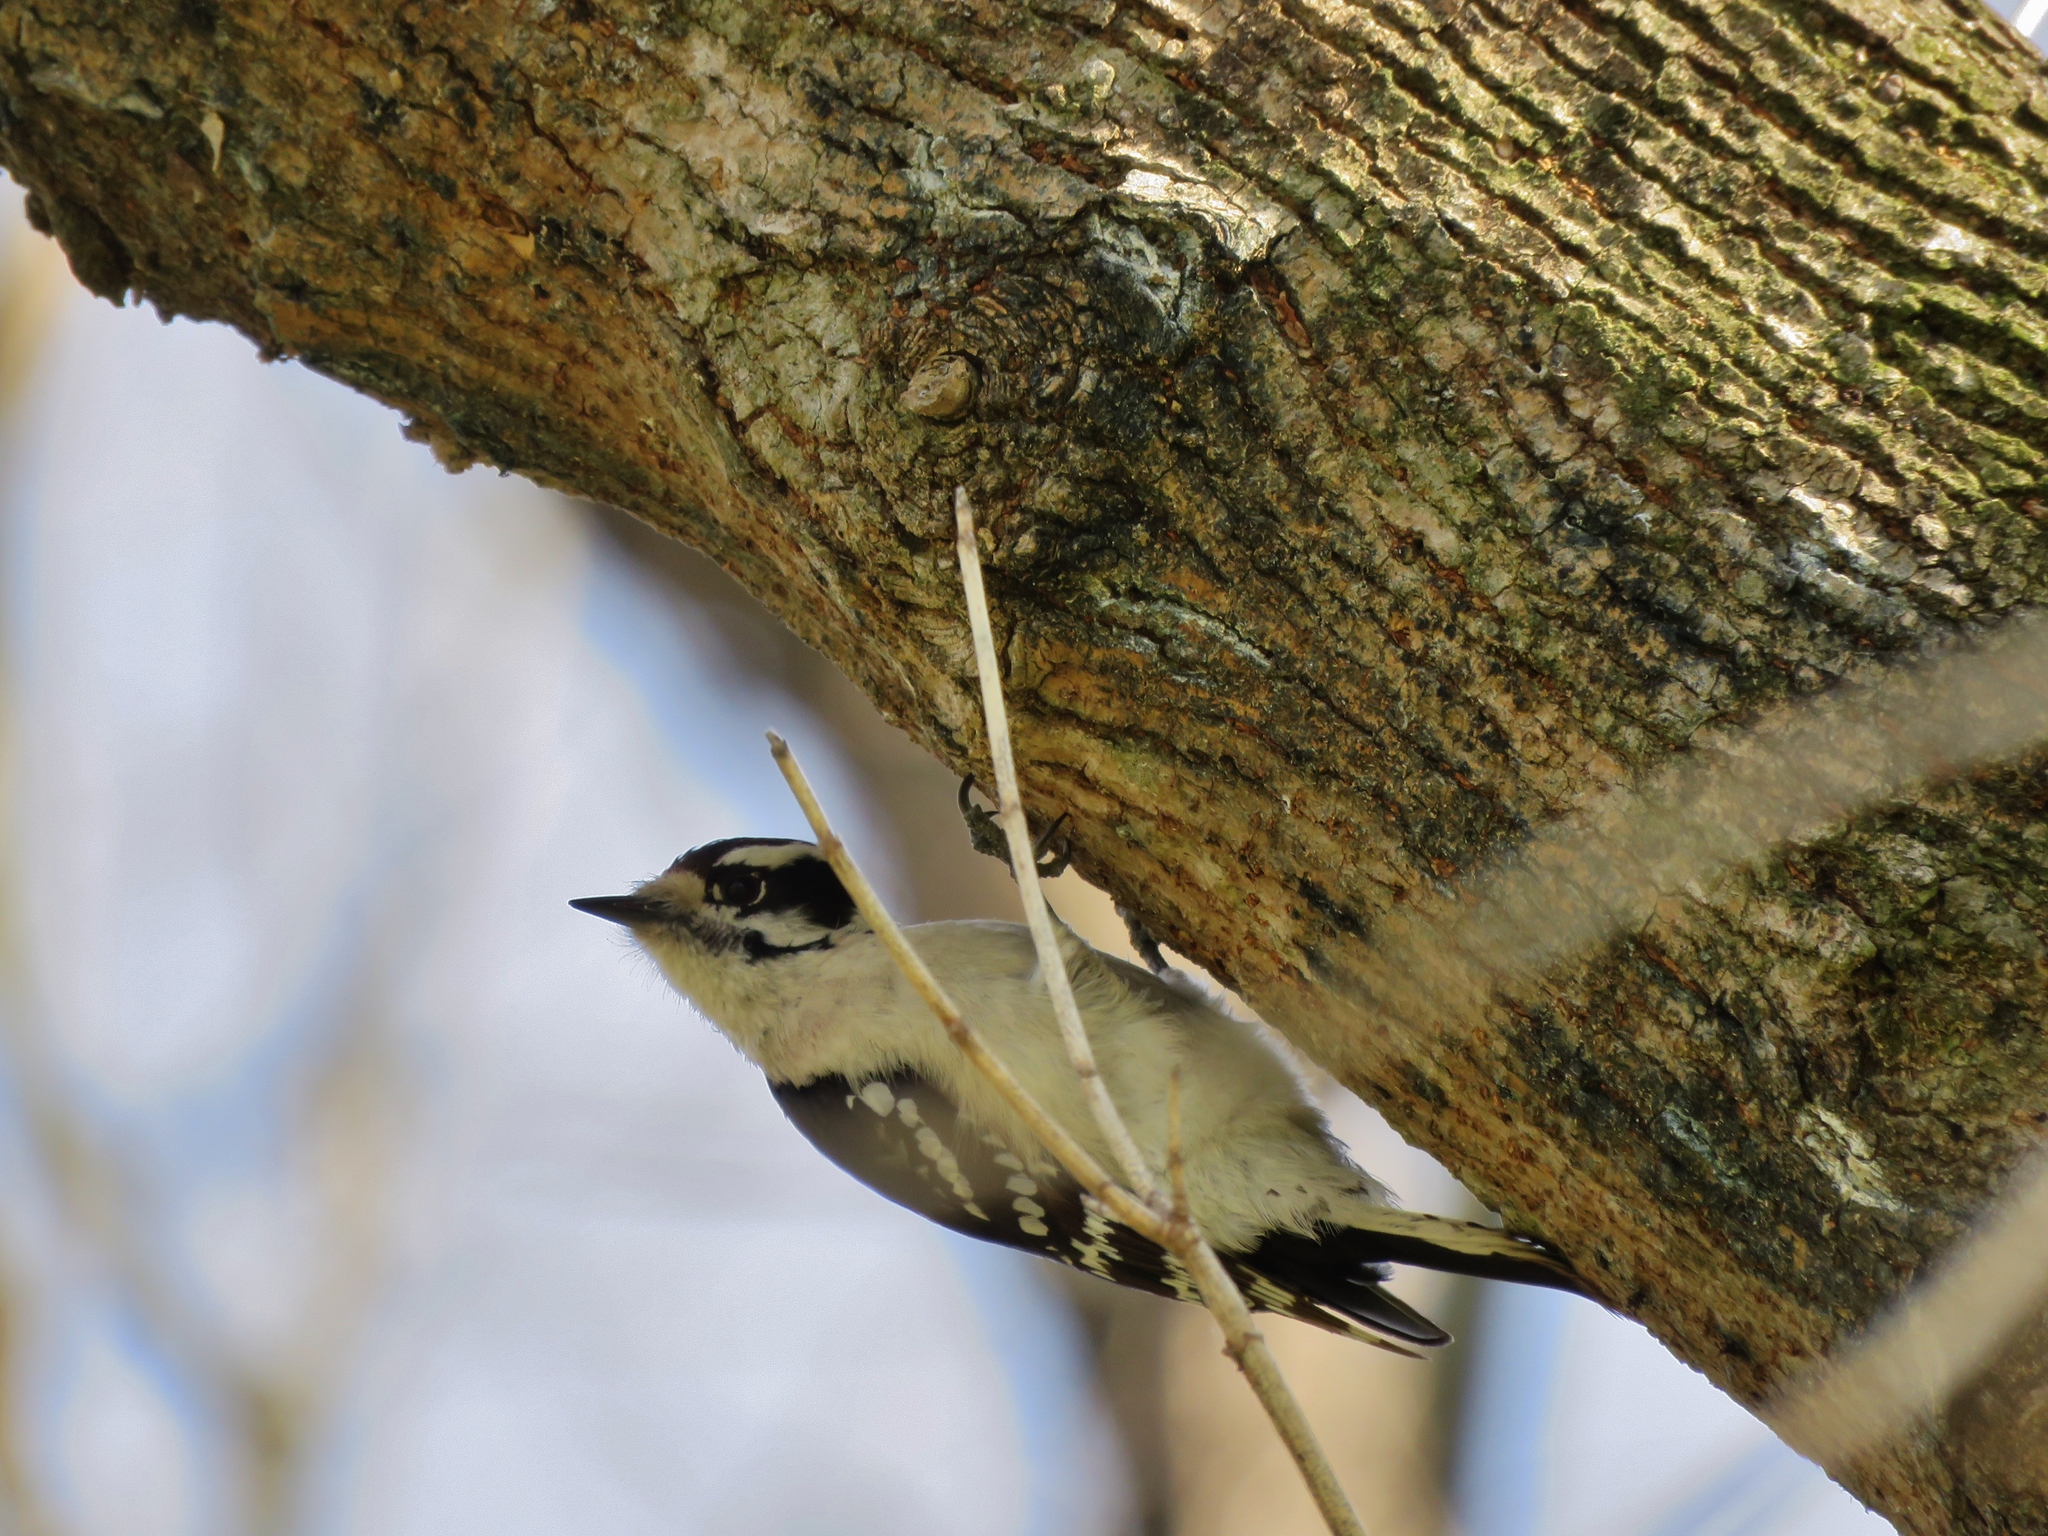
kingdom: Animalia
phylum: Chordata
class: Aves
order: Piciformes
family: Picidae
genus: Dryobates
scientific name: Dryobates pubescens
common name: Downy woodpecker
